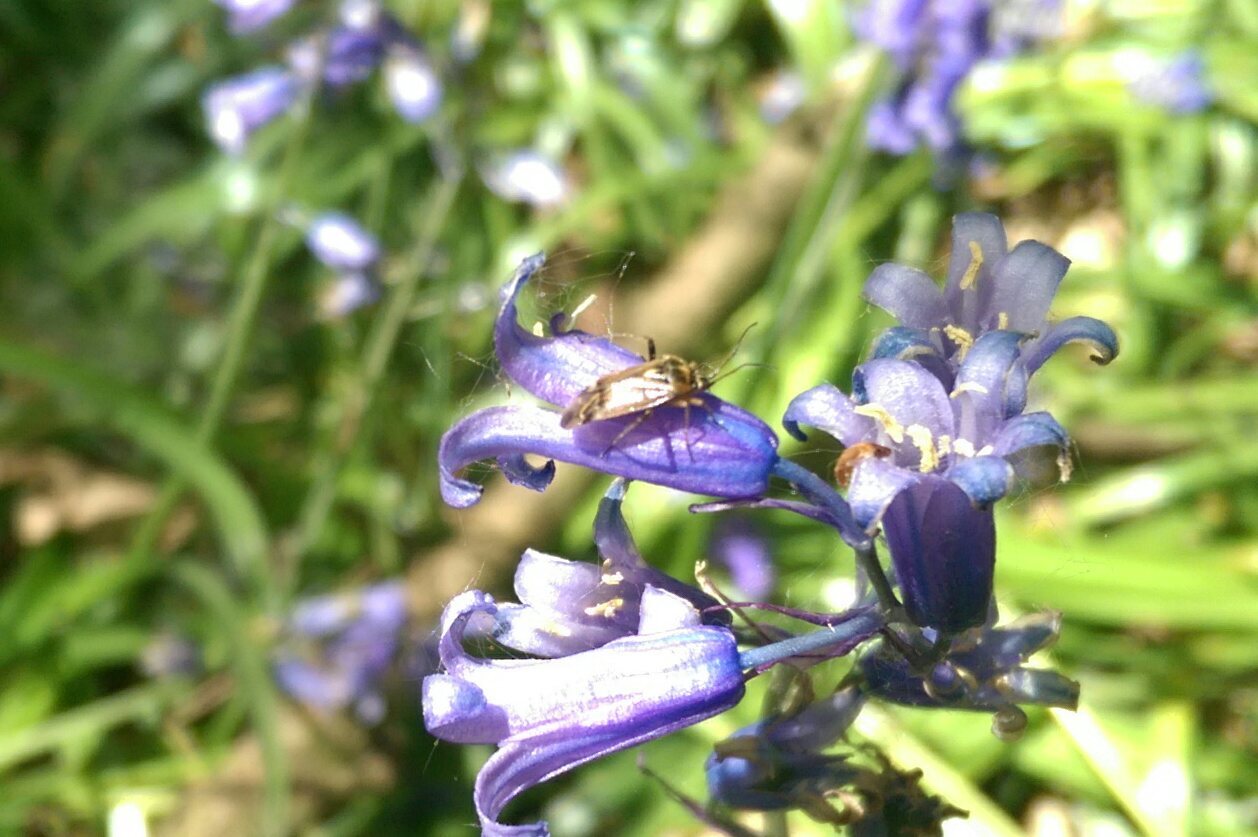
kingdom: Animalia
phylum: Arthropoda
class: Insecta
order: Hemiptera
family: Miridae
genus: Harpocera
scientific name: Harpocera thoracica
